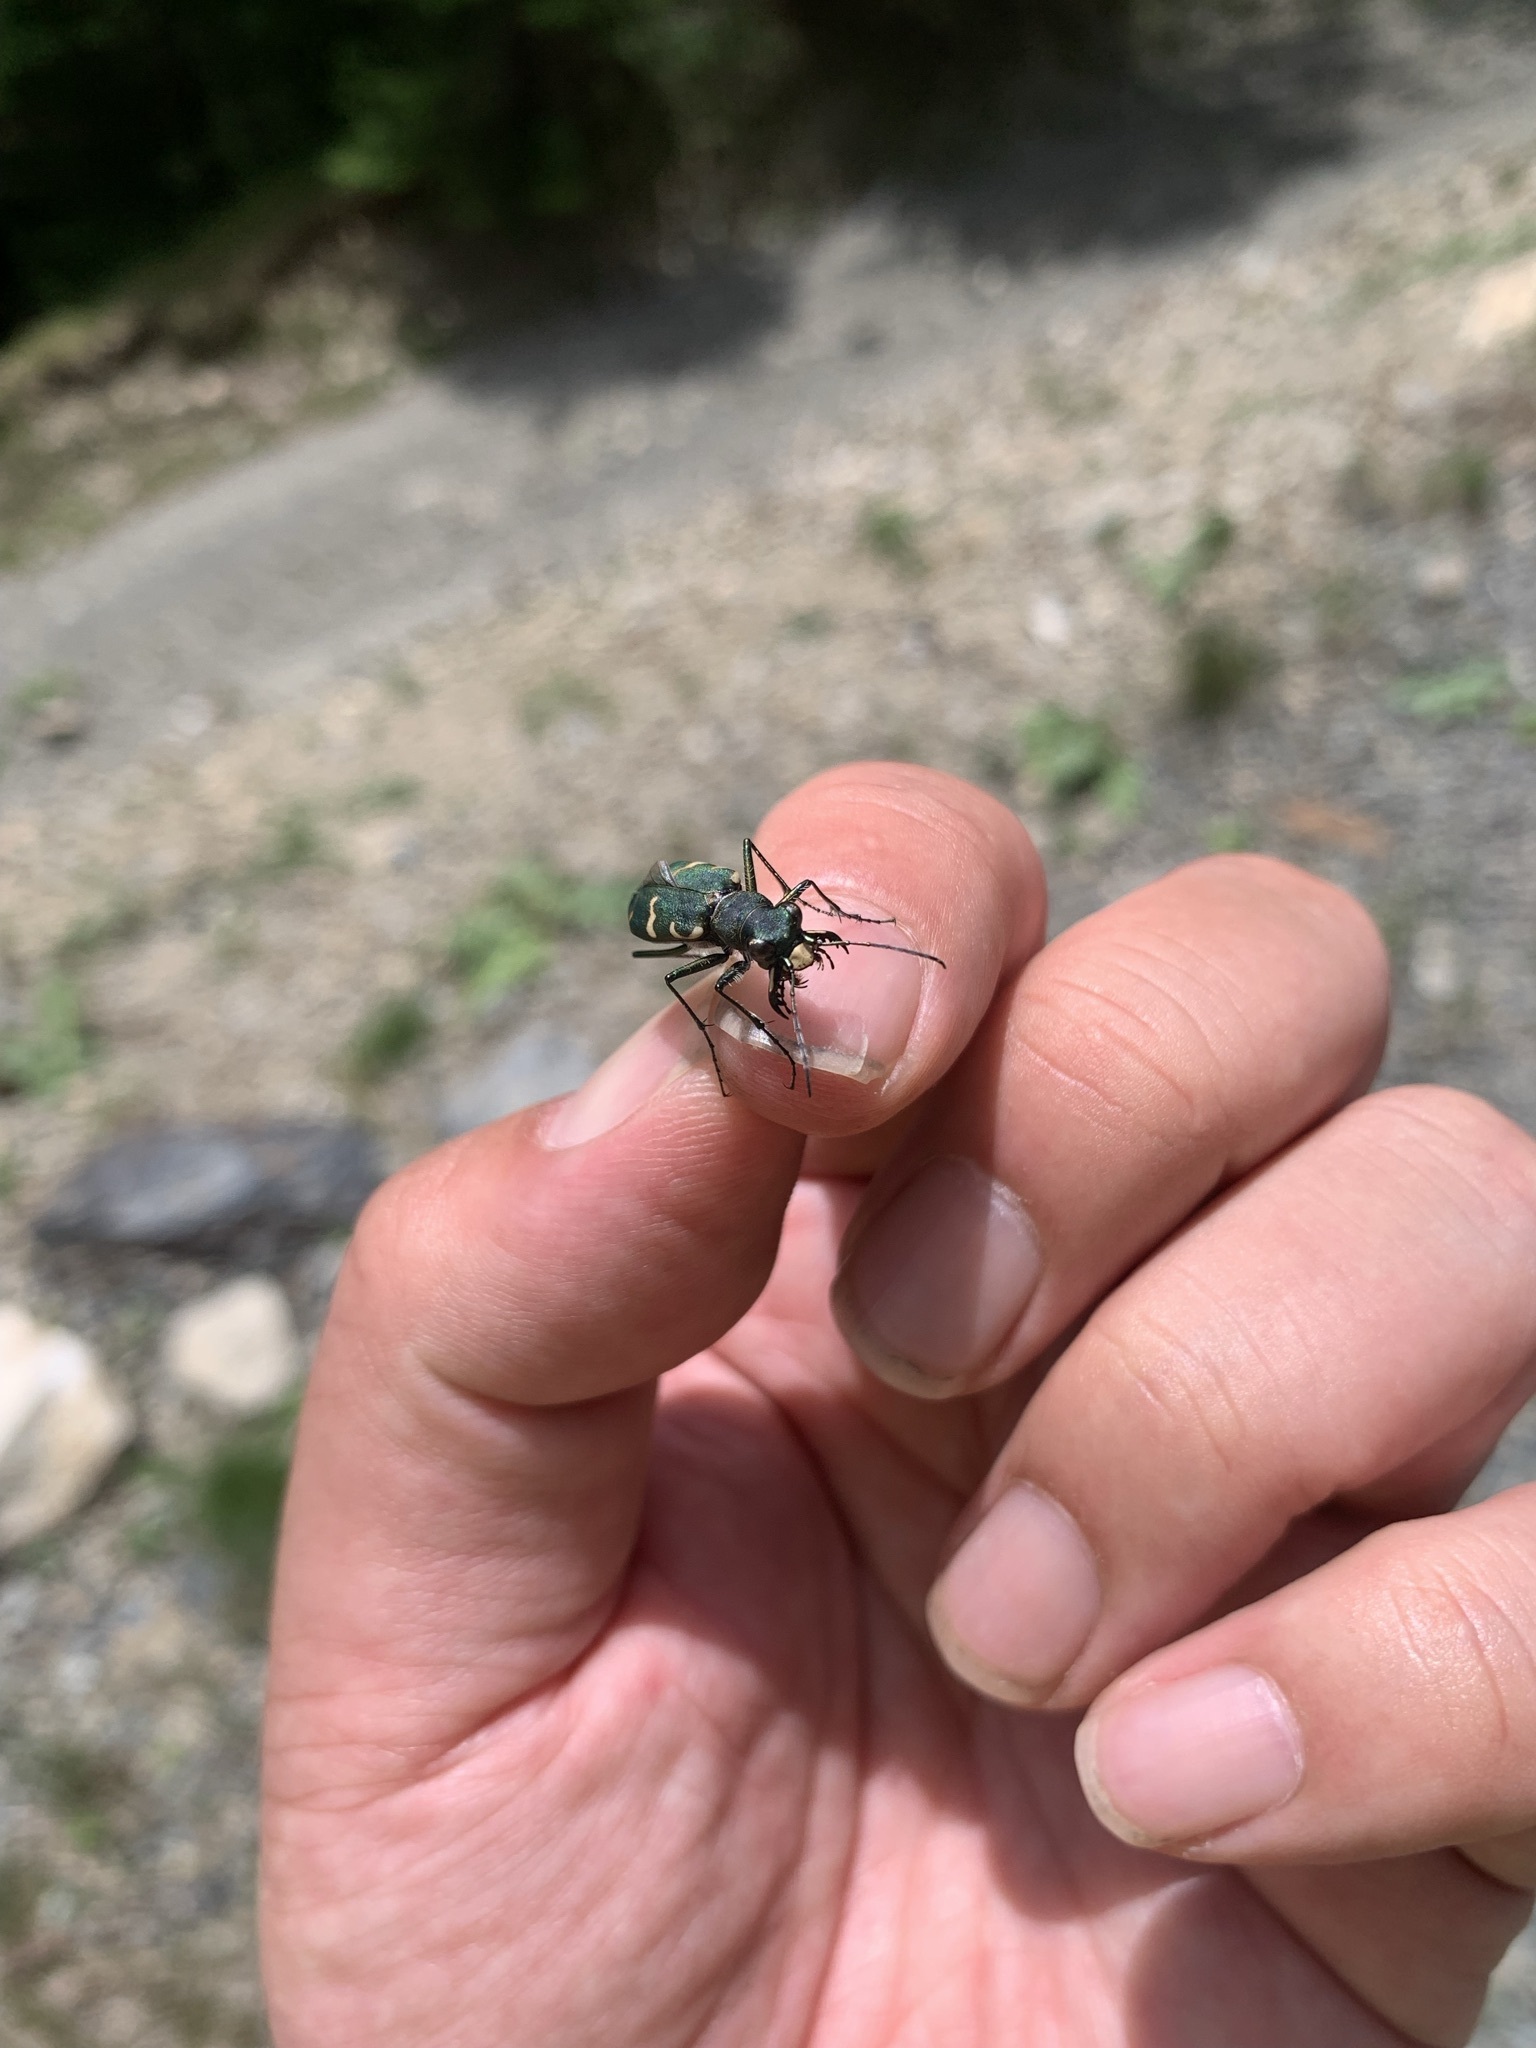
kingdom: Animalia
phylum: Arthropoda
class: Insecta
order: Coleoptera
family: Carabidae
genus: Cicindela
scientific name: Cicindela sachalinensis
